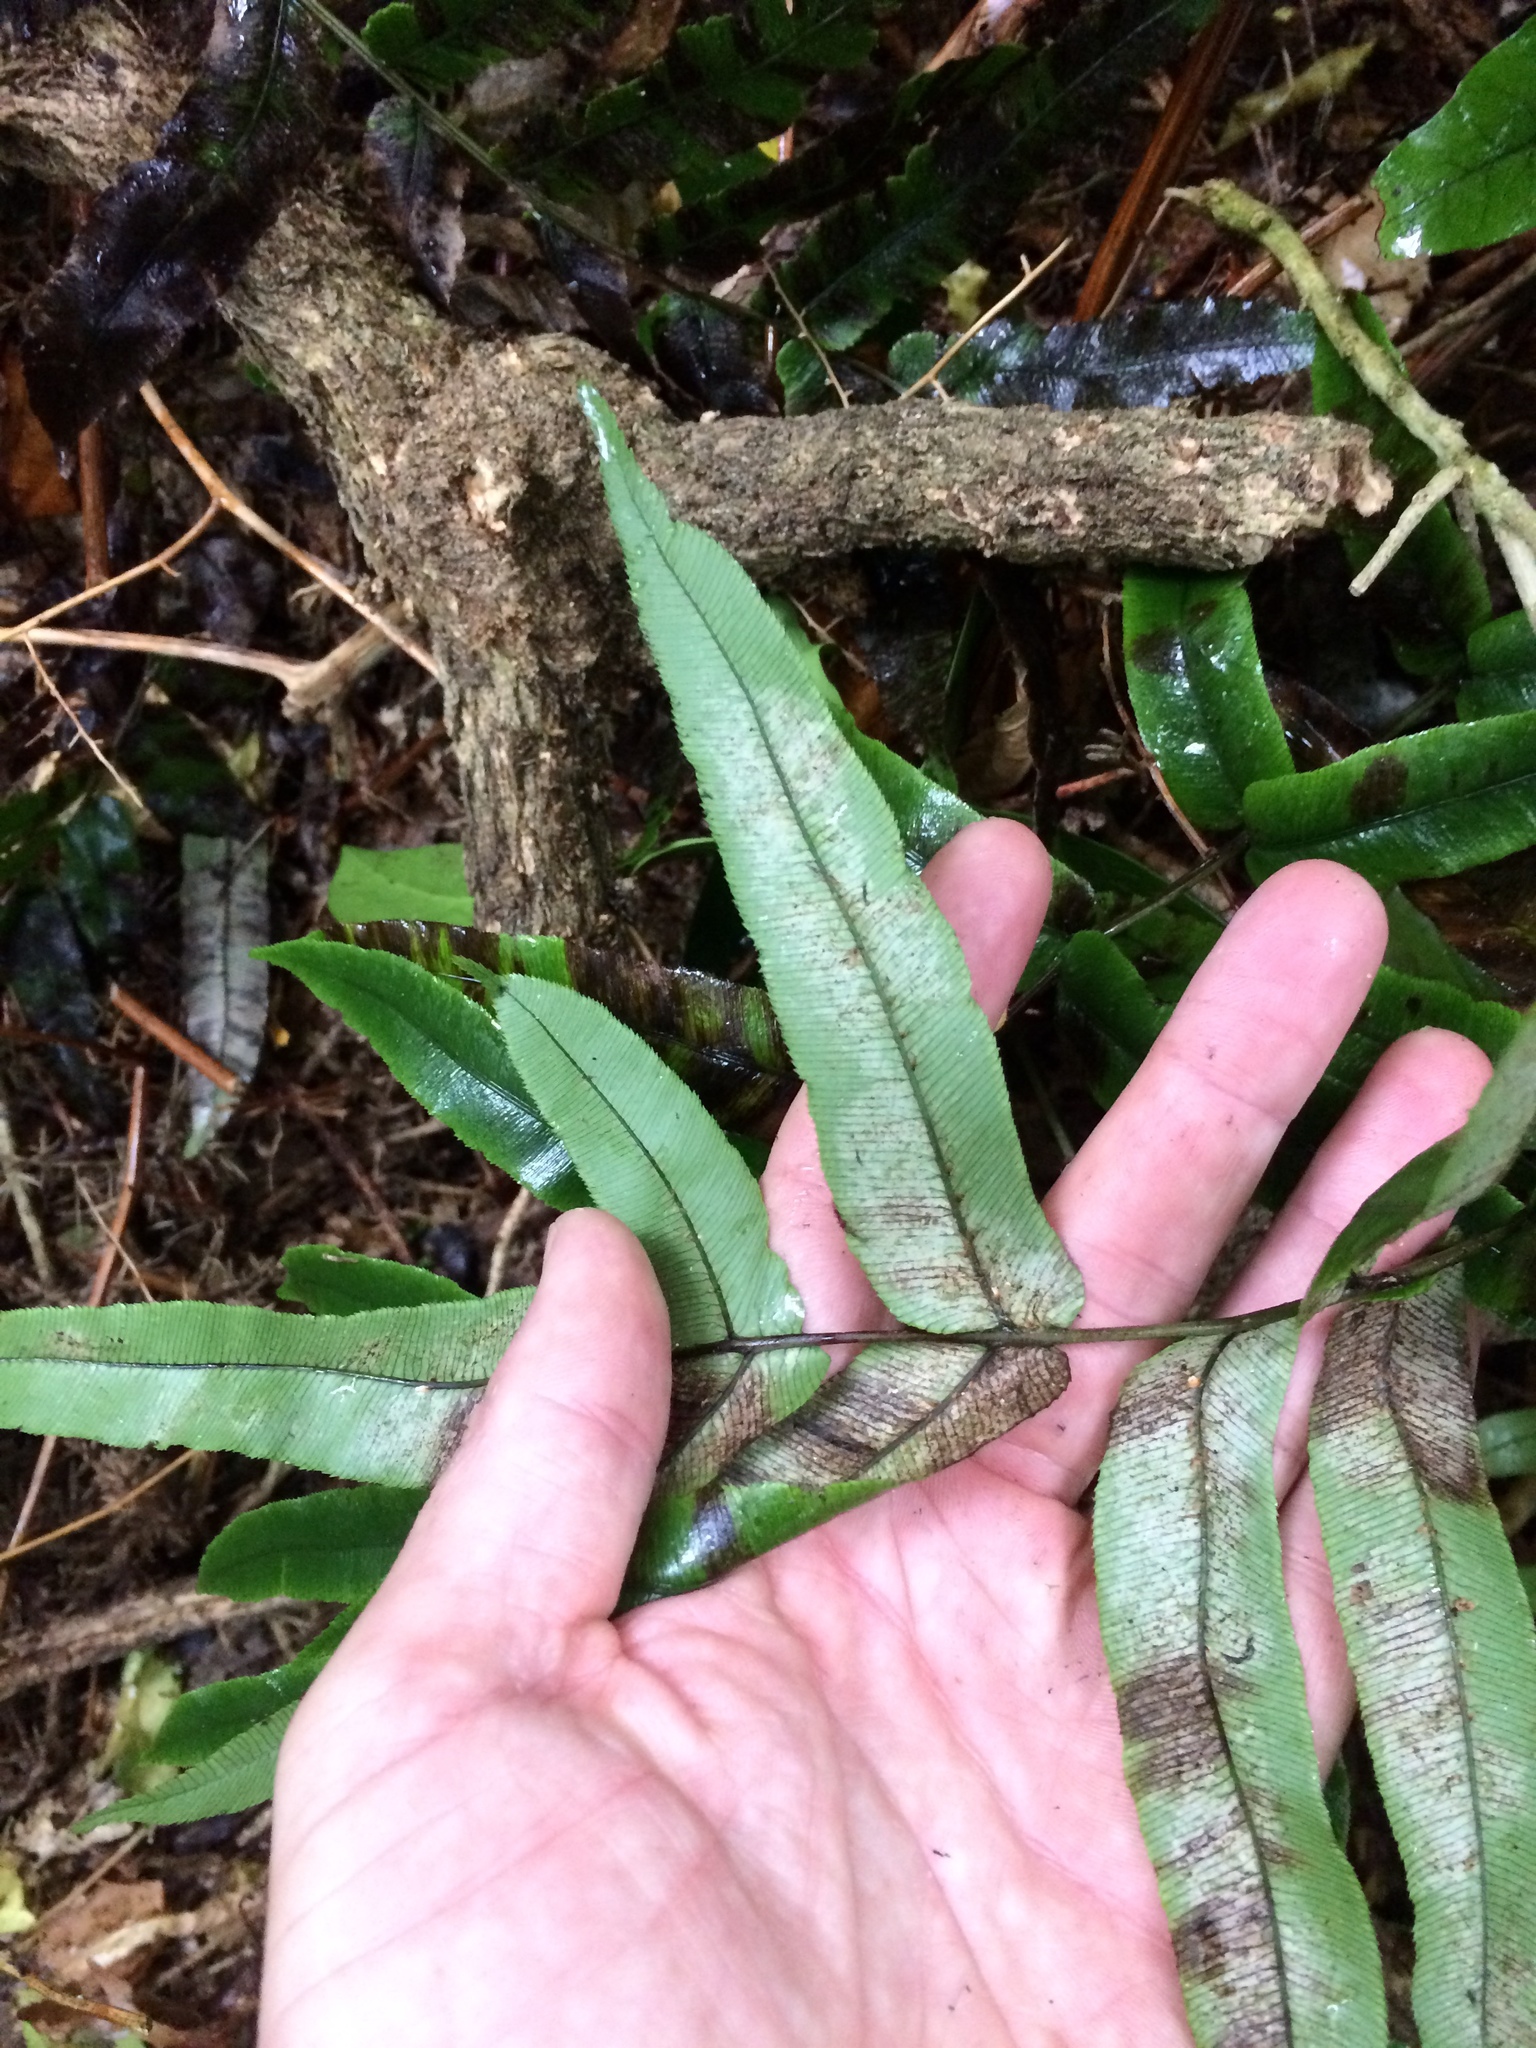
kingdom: Plantae
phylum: Tracheophyta
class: Polypodiopsida
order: Polypodiales
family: Blechnaceae
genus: Parablechnum
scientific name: Parablechnum procerum
